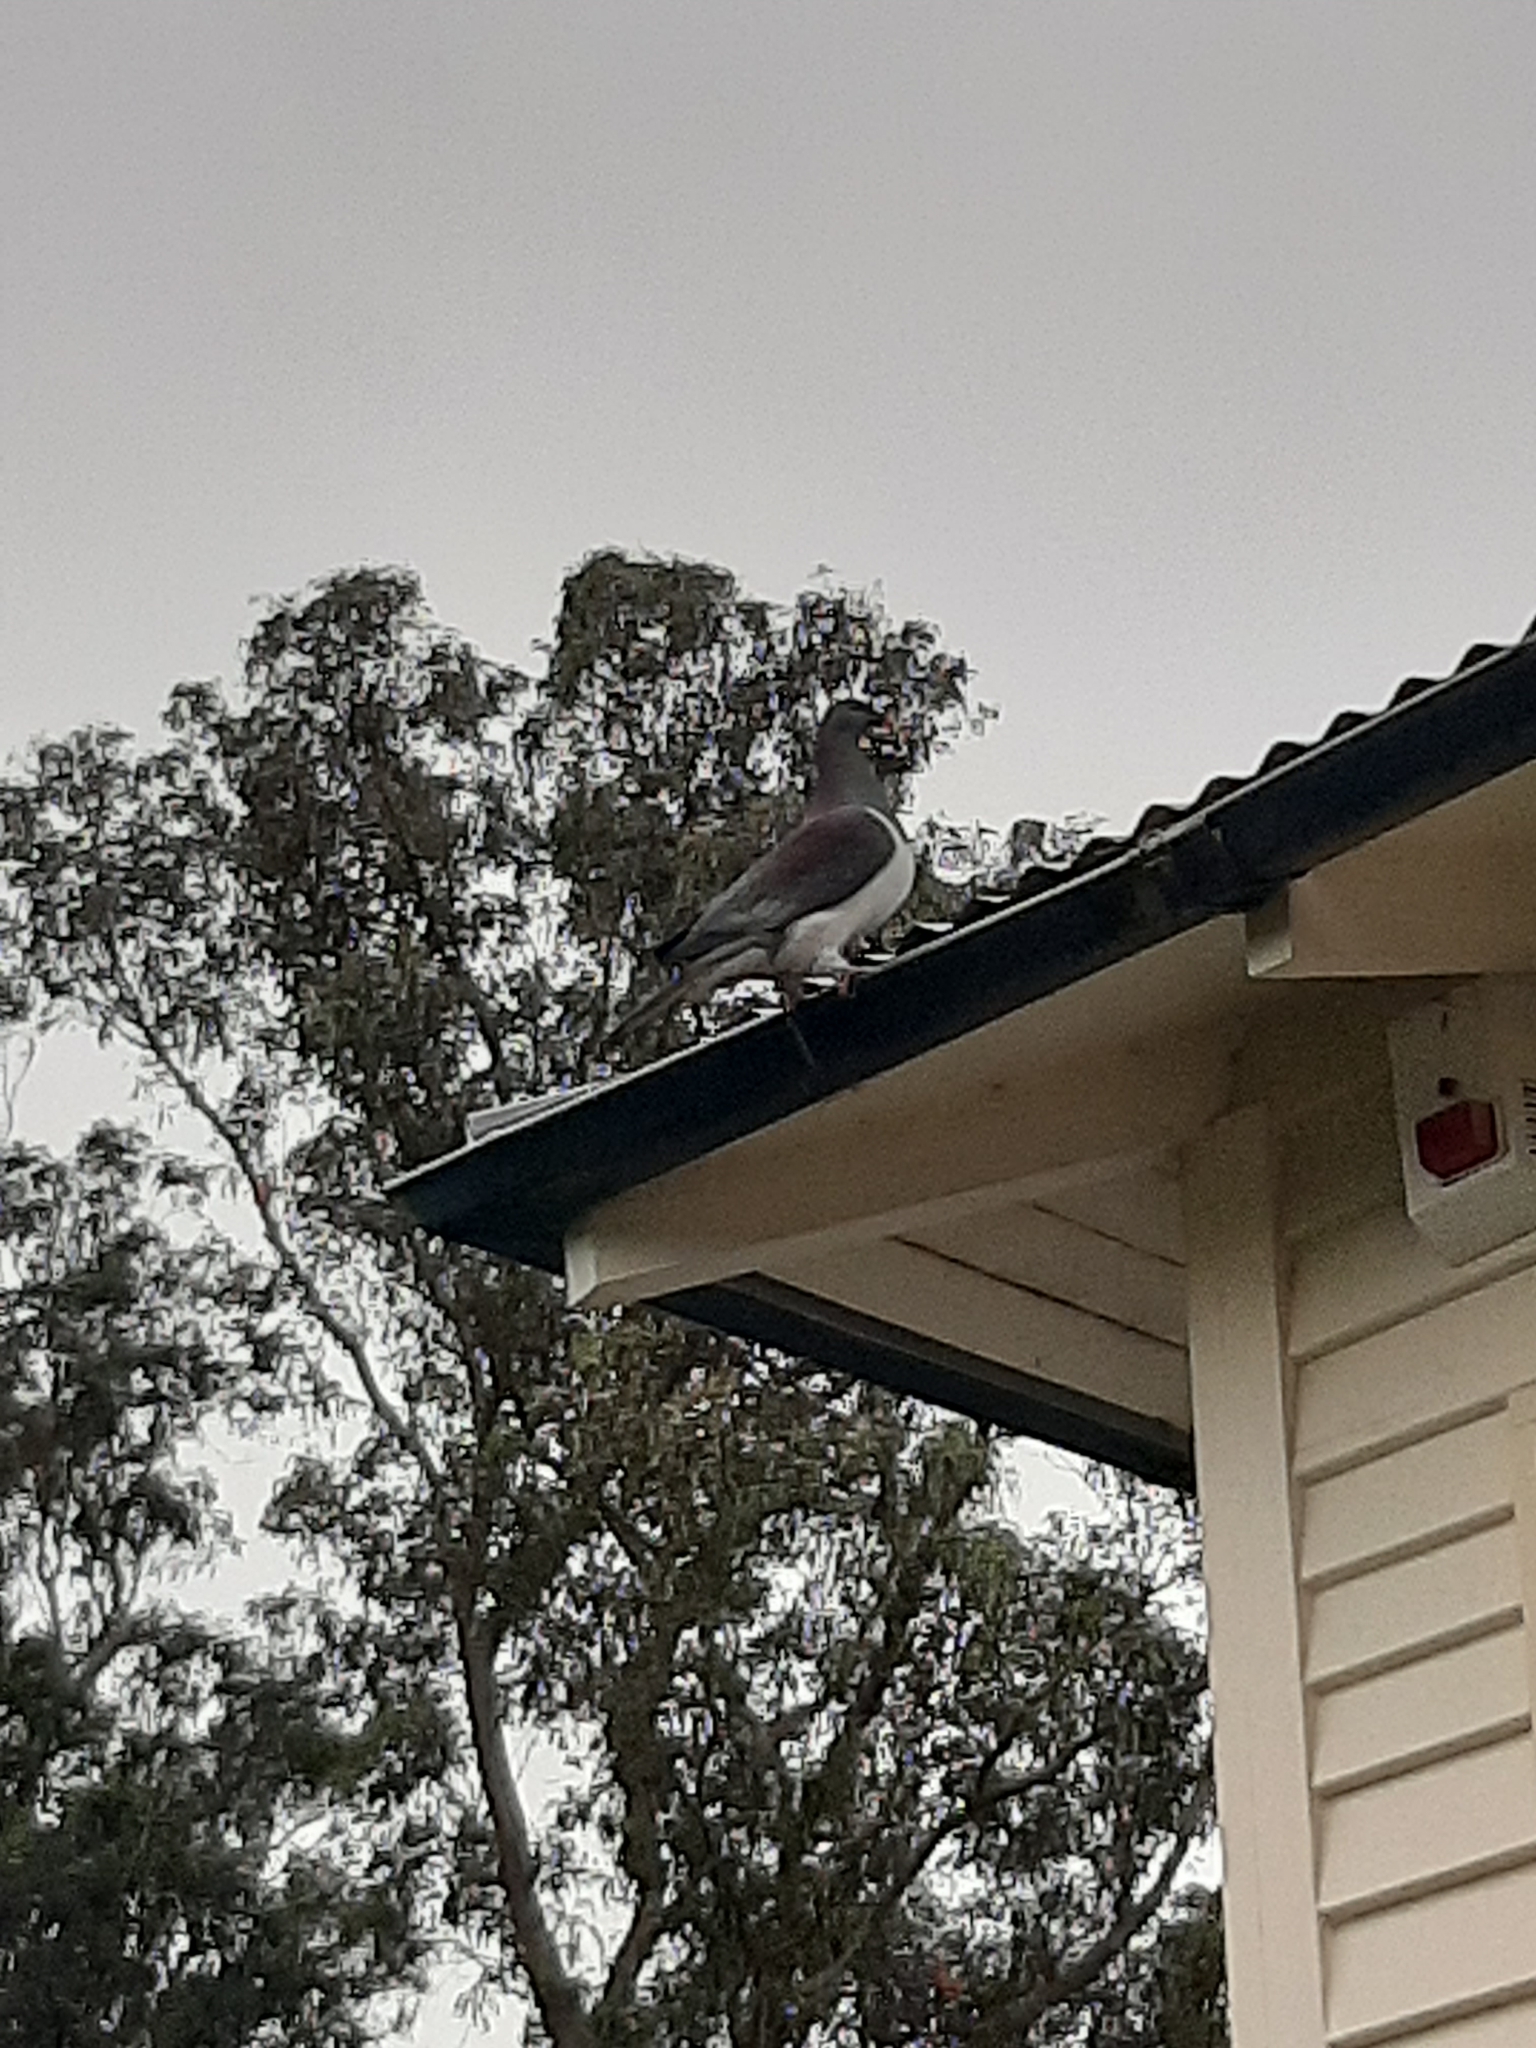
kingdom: Animalia
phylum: Chordata
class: Aves
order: Columbiformes
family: Columbidae
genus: Hemiphaga
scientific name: Hemiphaga novaeseelandiae
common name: New zealand pigeon
